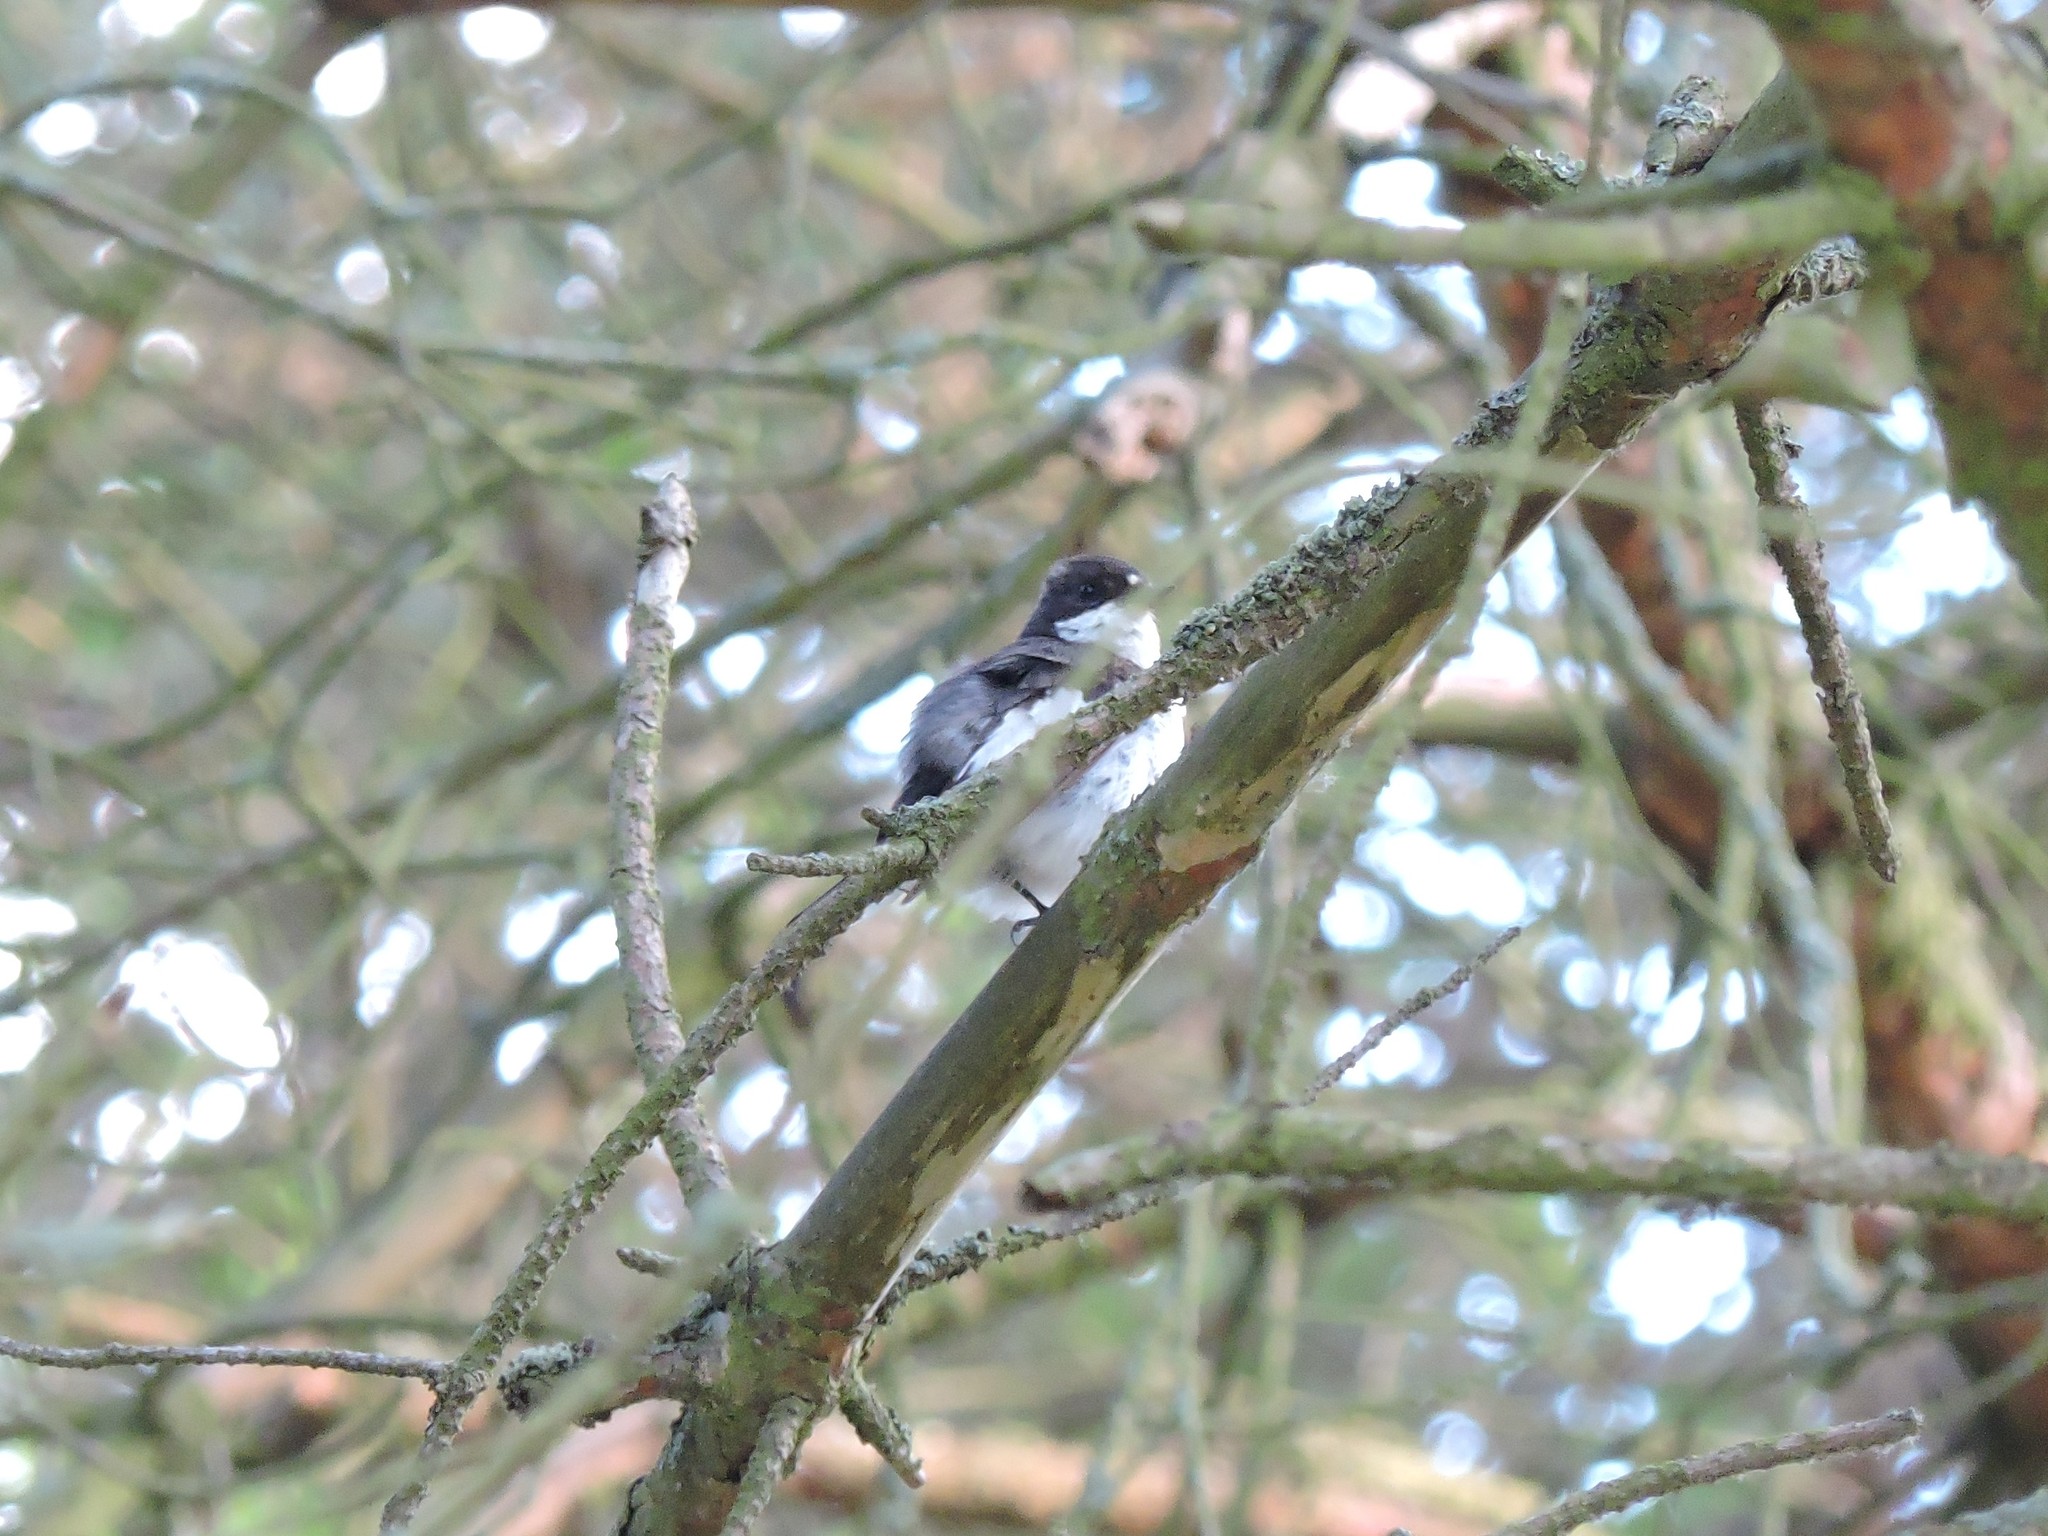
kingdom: Animalia
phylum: Chordata
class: Aves
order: Passeriformes
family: Muscicapidae
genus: Ficedula
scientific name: Ficedula hypoleuca
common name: European pied flycatcher
